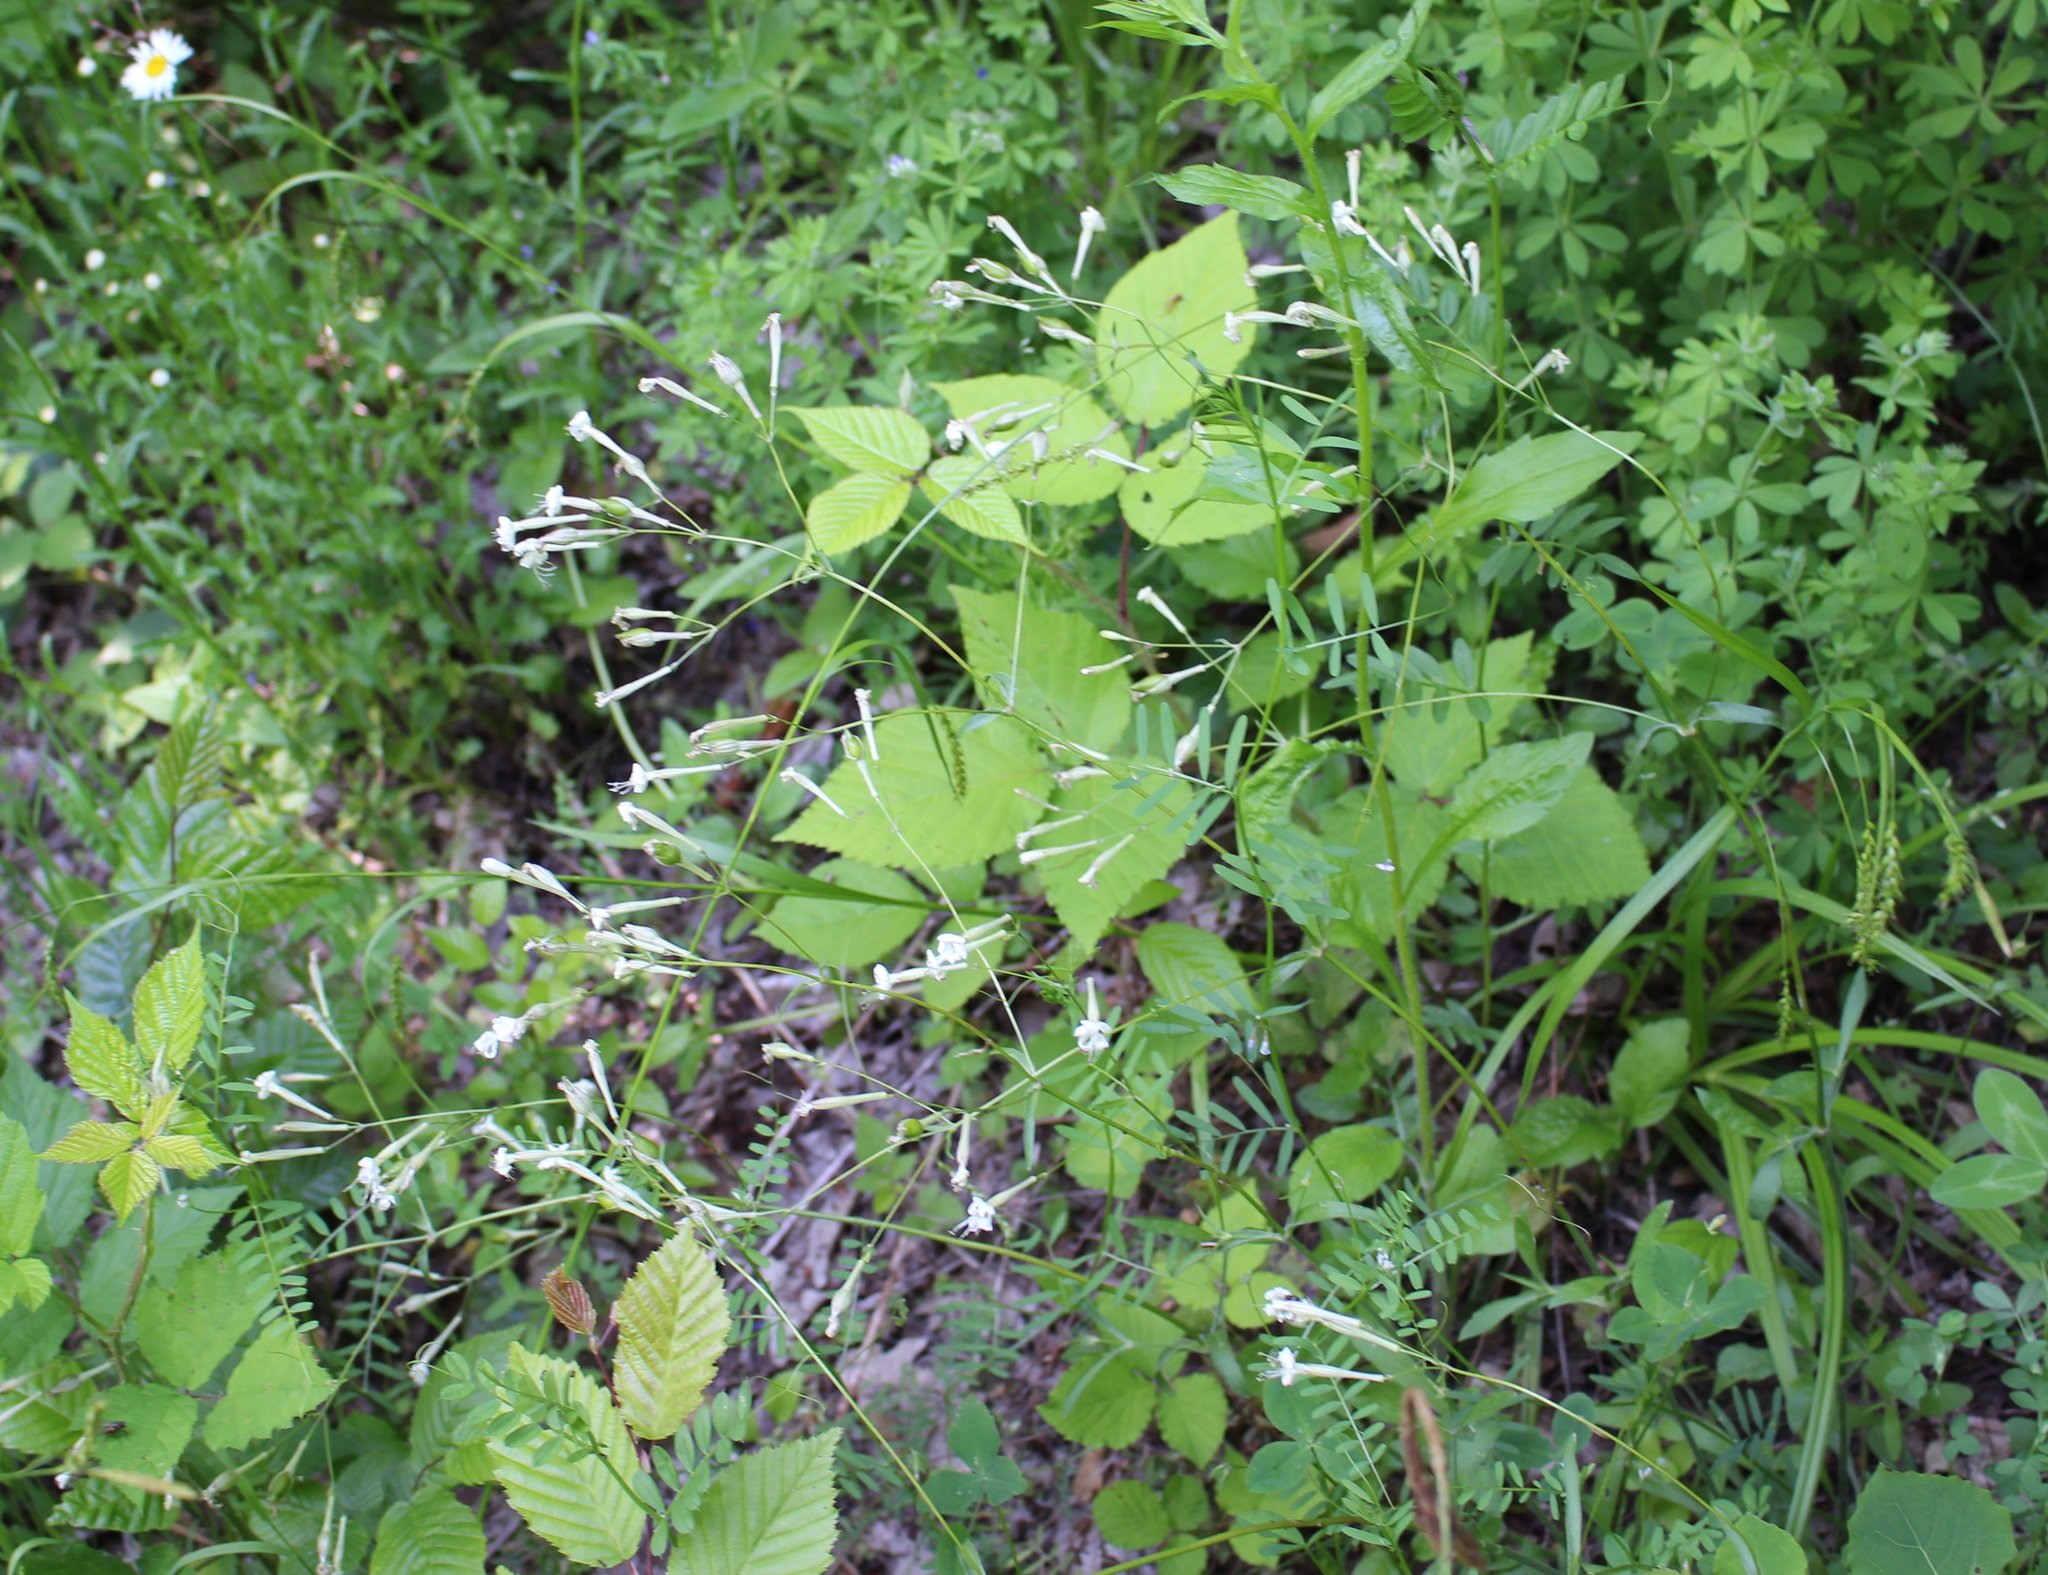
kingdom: Plantae
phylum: Tracheophyta
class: Magnoliopsida
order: Caryophyllales
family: Caryophyllaceae
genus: Silene
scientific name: Silene italica
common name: Italian catchfly
